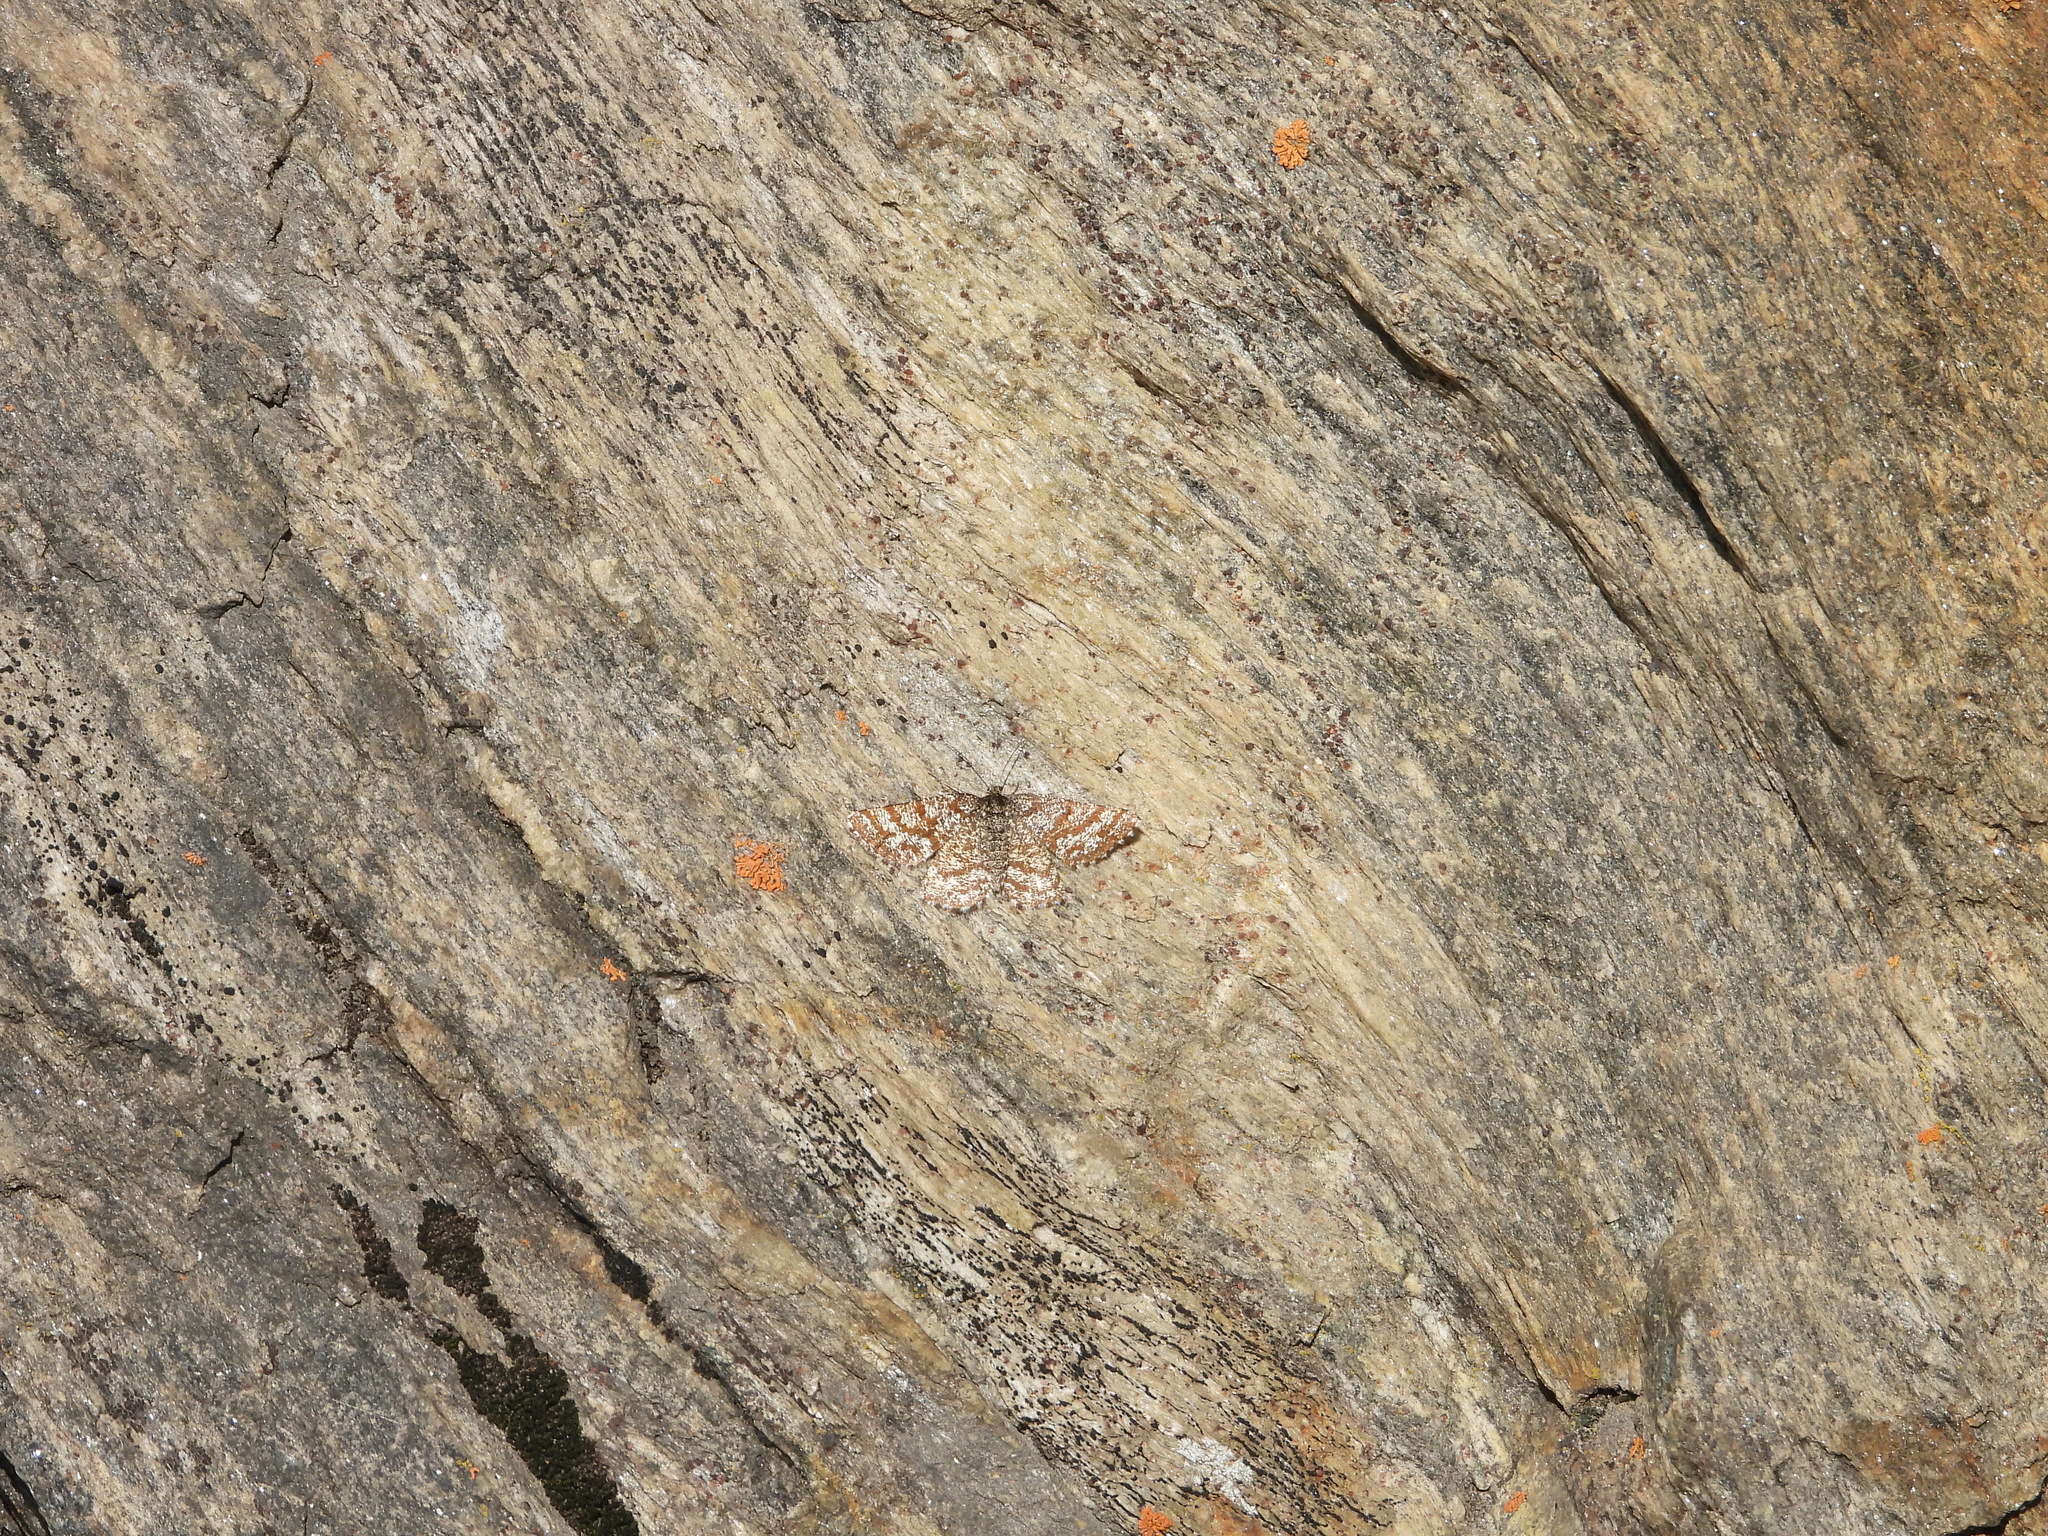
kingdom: Animalia
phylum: Arthropoda
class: Insecta
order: Lepidoptera
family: Geometridae
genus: Ematurga
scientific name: Ematurga atomaria
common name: Common heath
